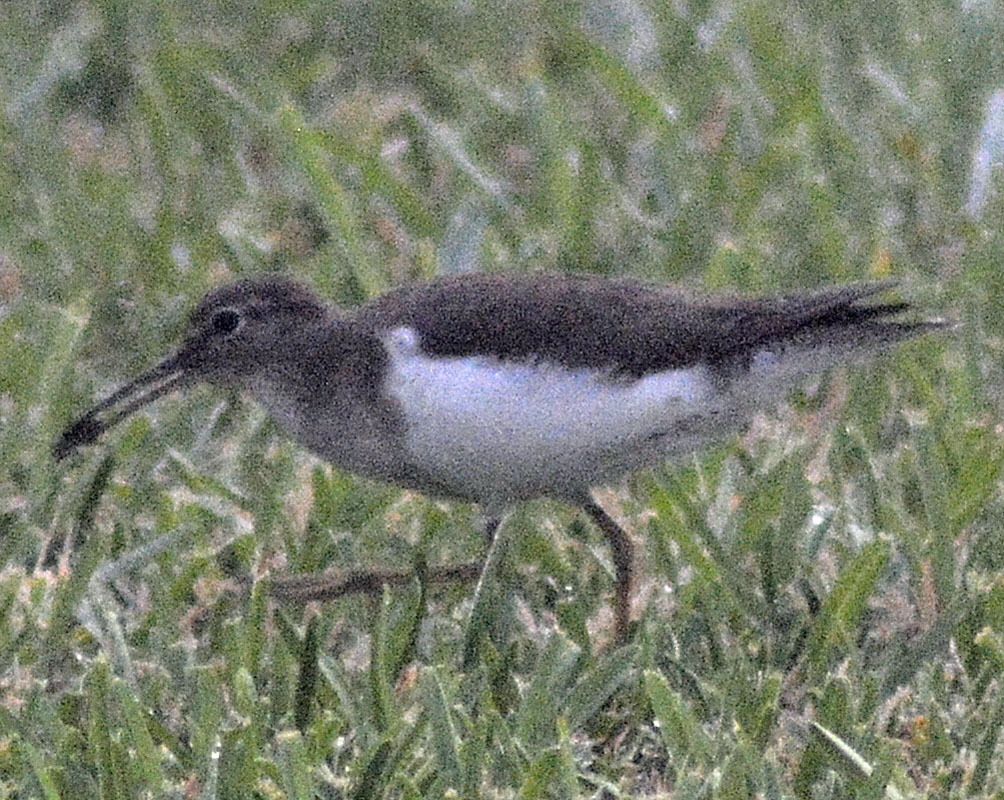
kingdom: Animalia
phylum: Chordata
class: Aves
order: Charadriiformes
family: Scolopacidae
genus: Actitis
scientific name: Actitis macularius
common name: Spotted sandpiper
